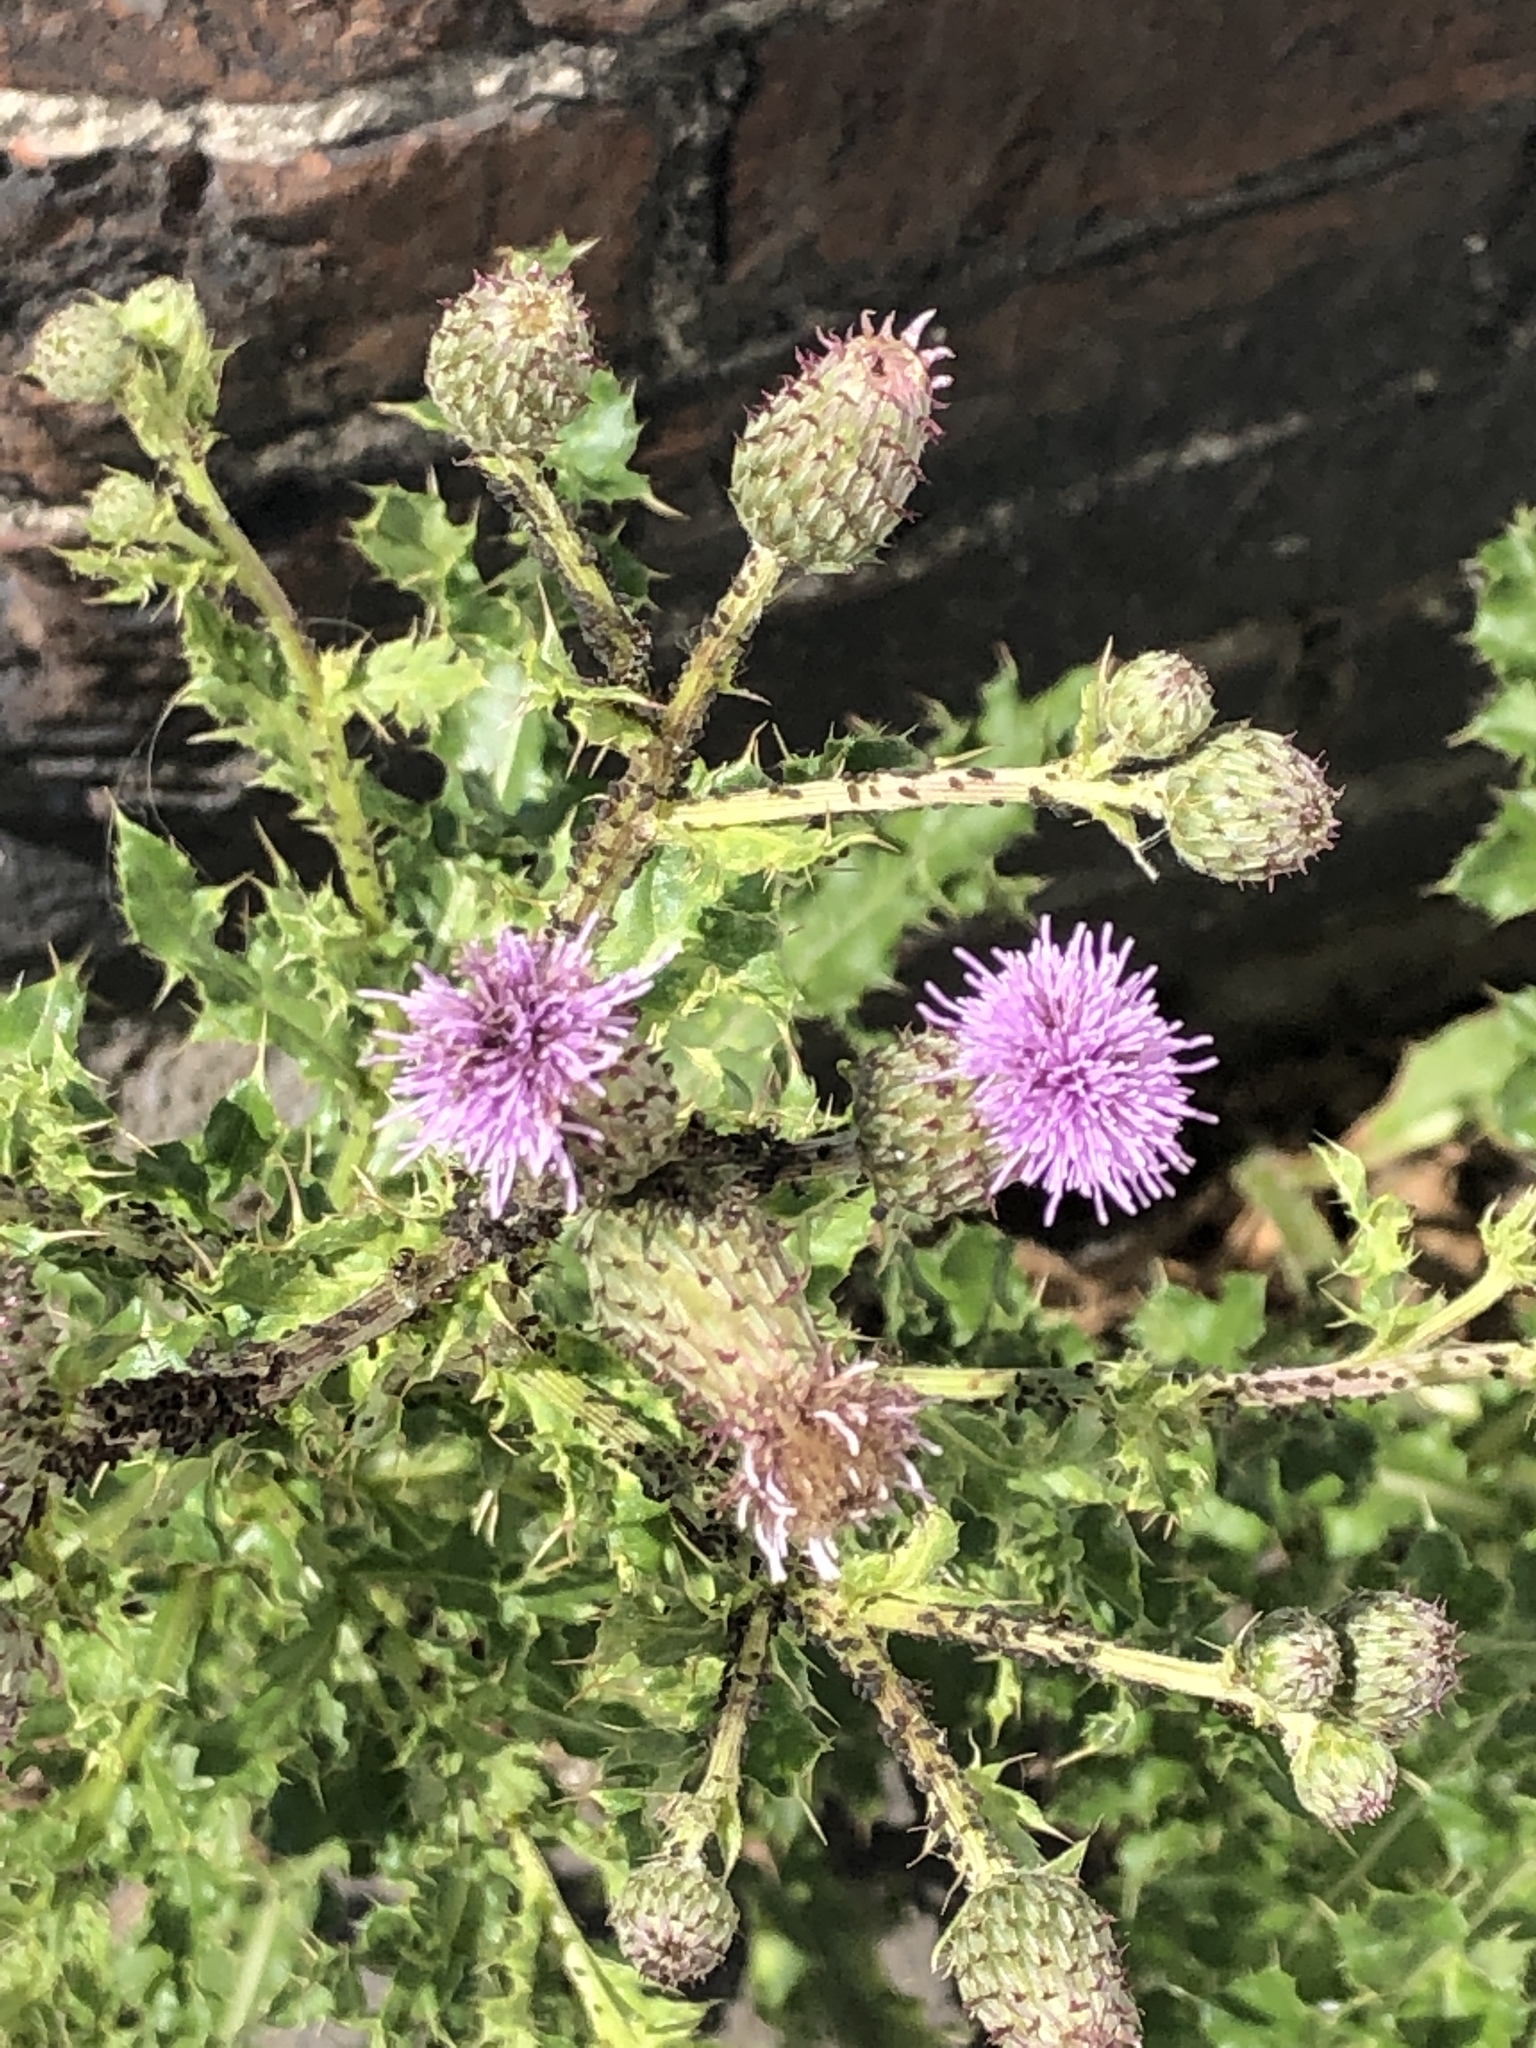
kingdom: Plantae
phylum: Tracheophyta
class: Magnoliopsida
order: Asterales
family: Asteraceae
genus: Cirsium
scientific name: Cirsium arvense
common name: Creeping thistle
